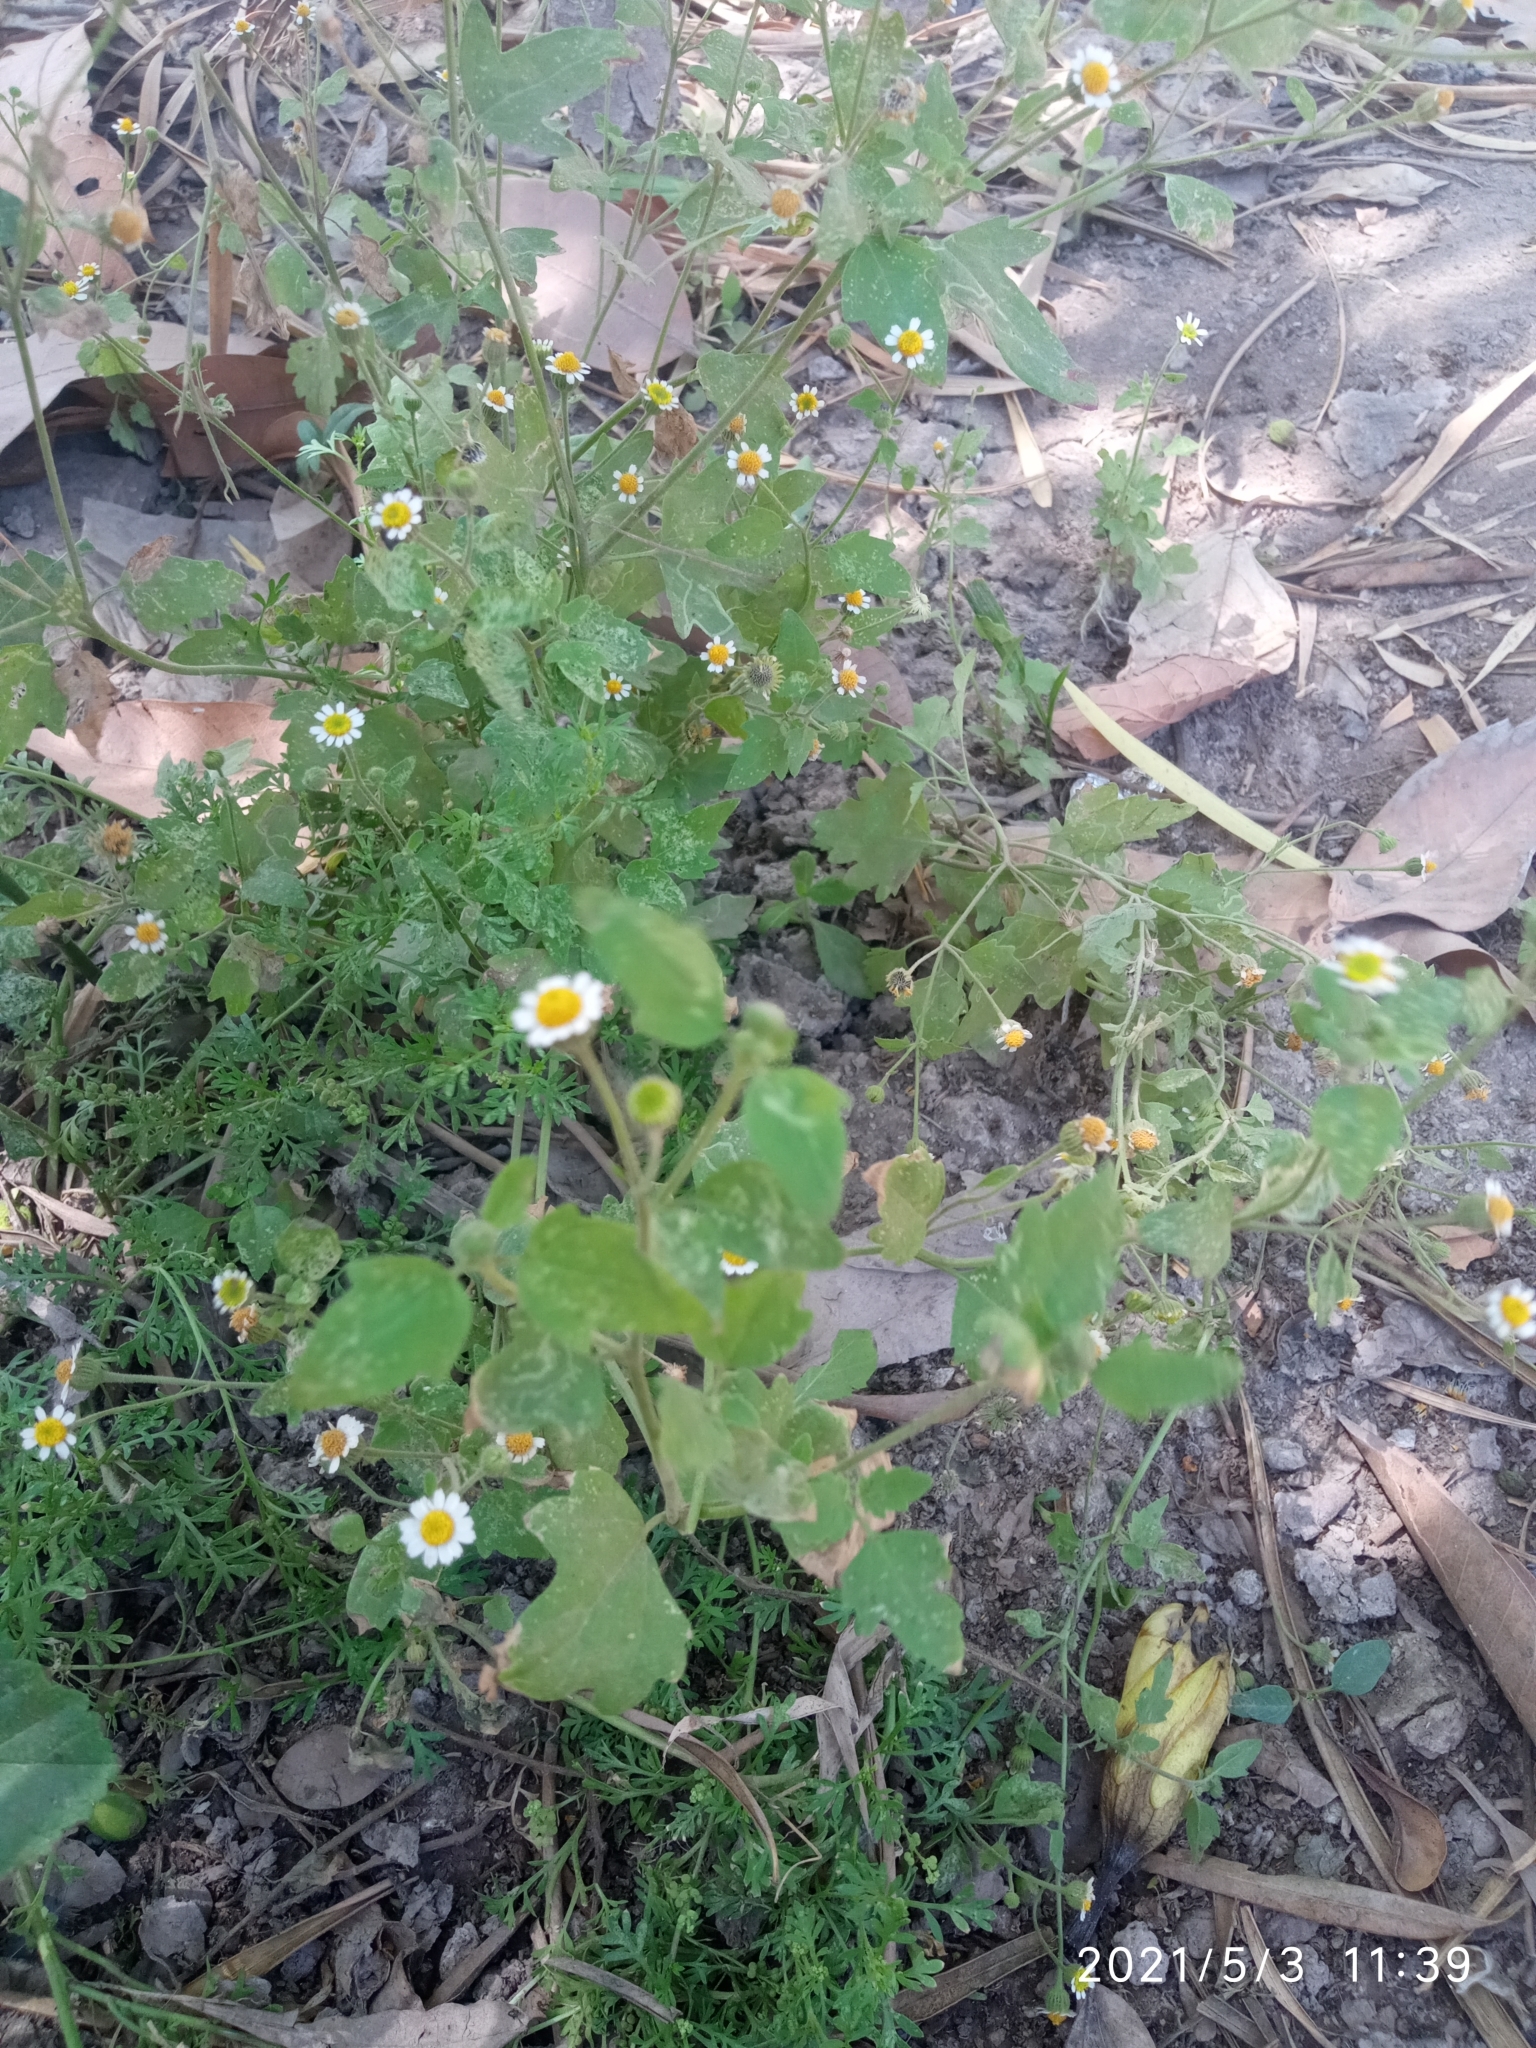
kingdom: Plantae
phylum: Tracheophyta
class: Magnoliopsida
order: Asterales
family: Asteraceae
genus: Galinsogeopsis
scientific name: Galinsogeopsis spilanthoides
